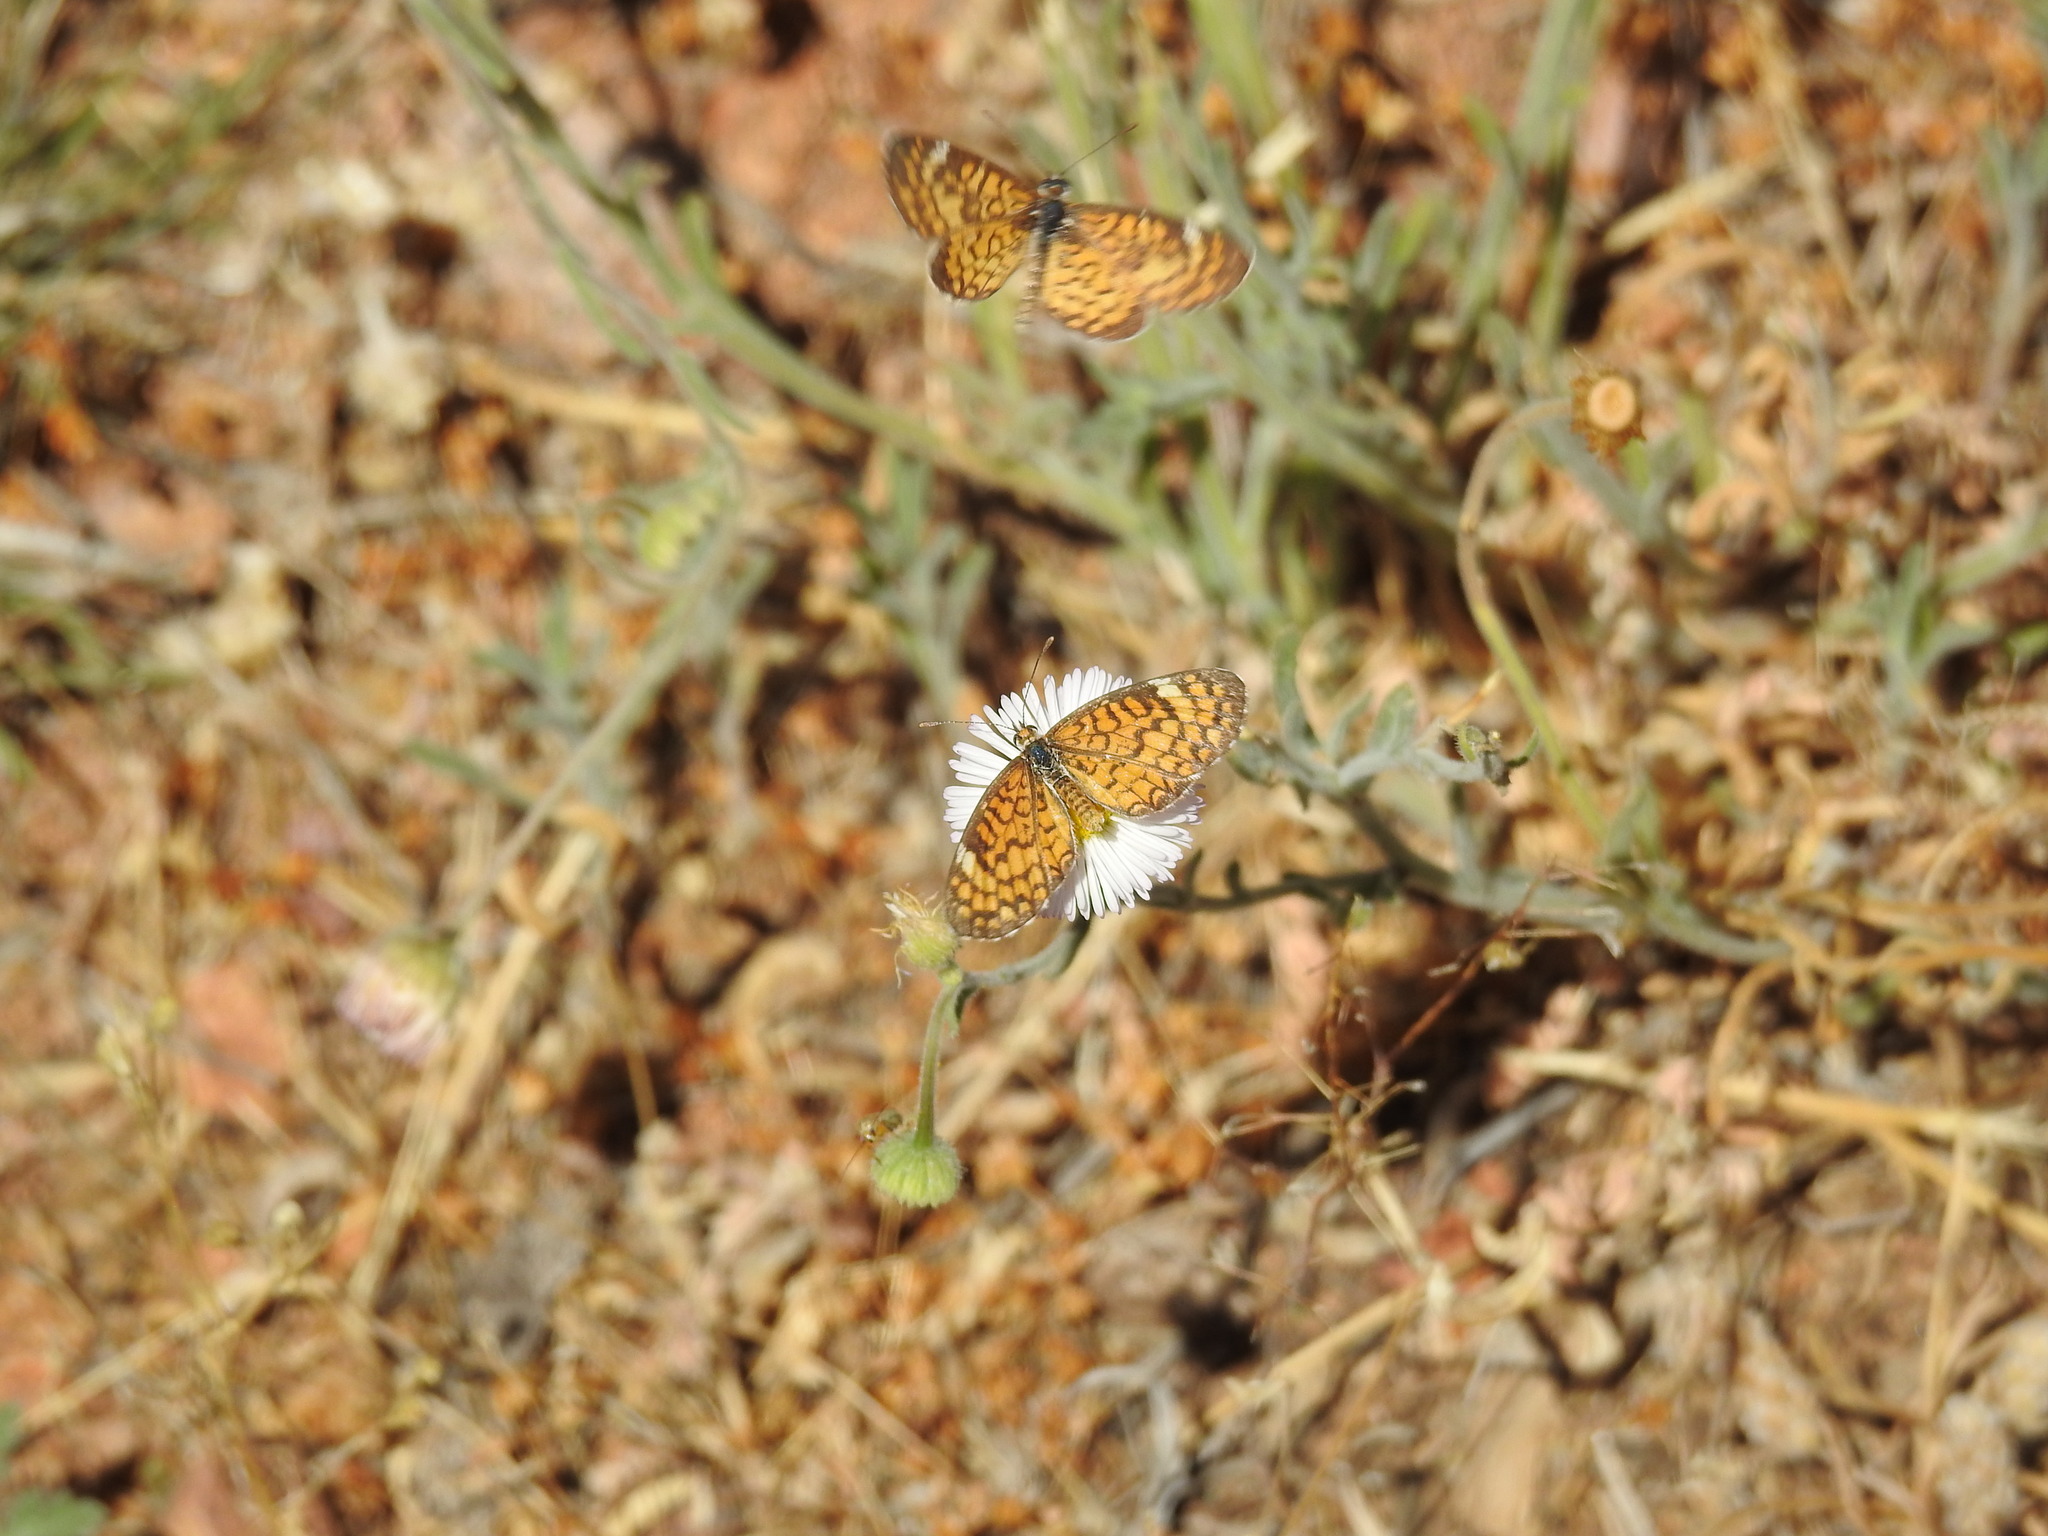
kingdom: Animalia
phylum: Arthropoda
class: Insecta
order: Lepidoptera
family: Nymphalidae
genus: Dymasia
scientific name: Dymasia dymas
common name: Tiny checkerspot
